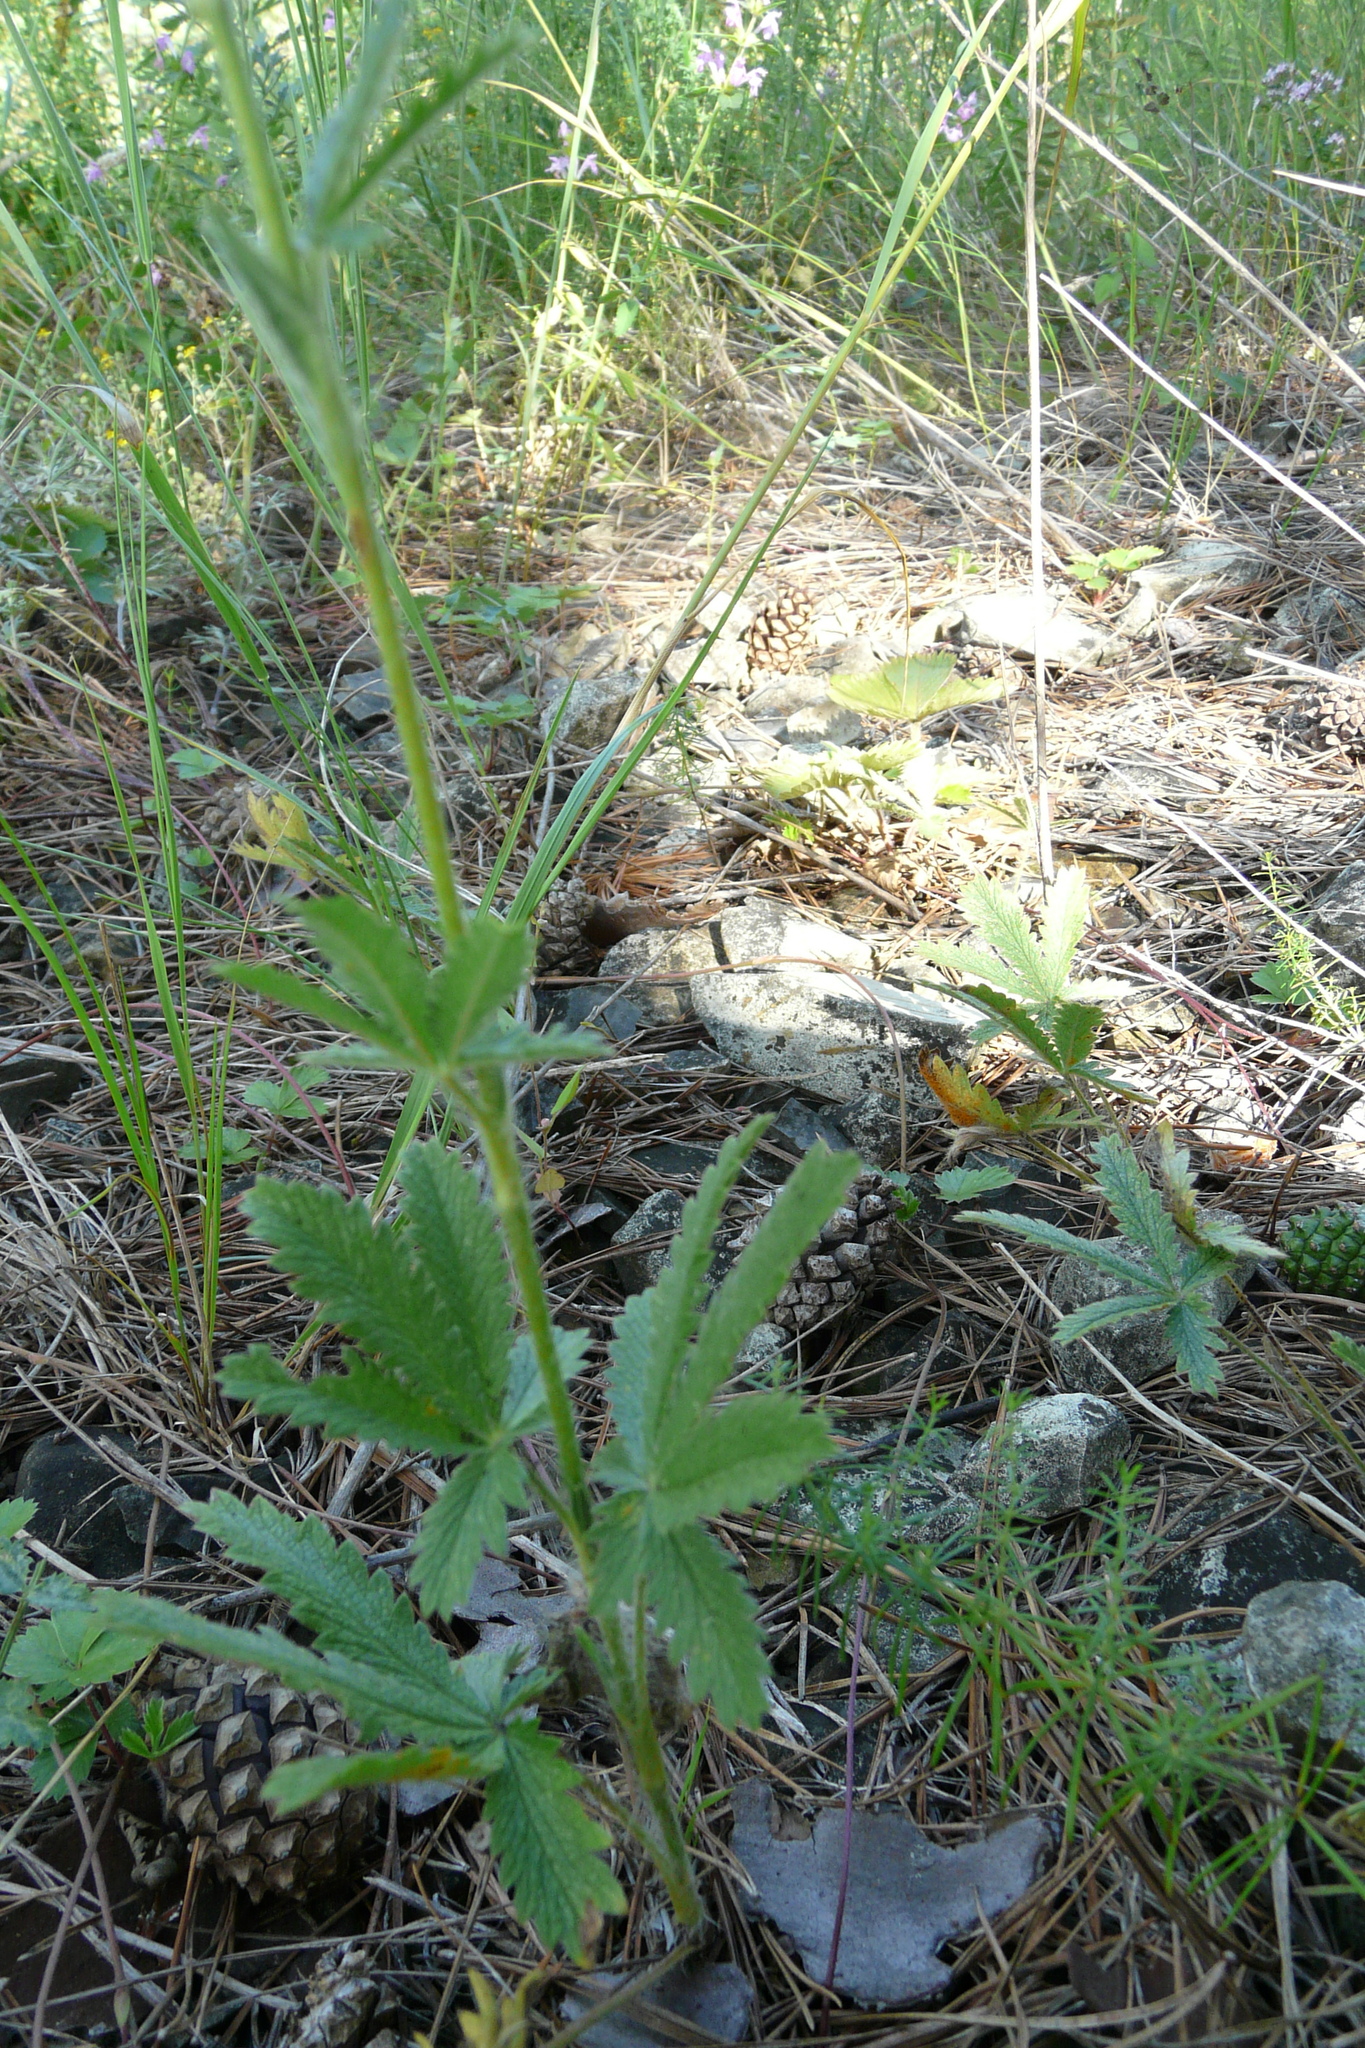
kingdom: Plantae
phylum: Tracheophyta
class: Magnoliopsida
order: Rosales
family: Rosaceae
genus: Potentilla
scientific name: Potentilla recta
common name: Sulphur cinquefoil
